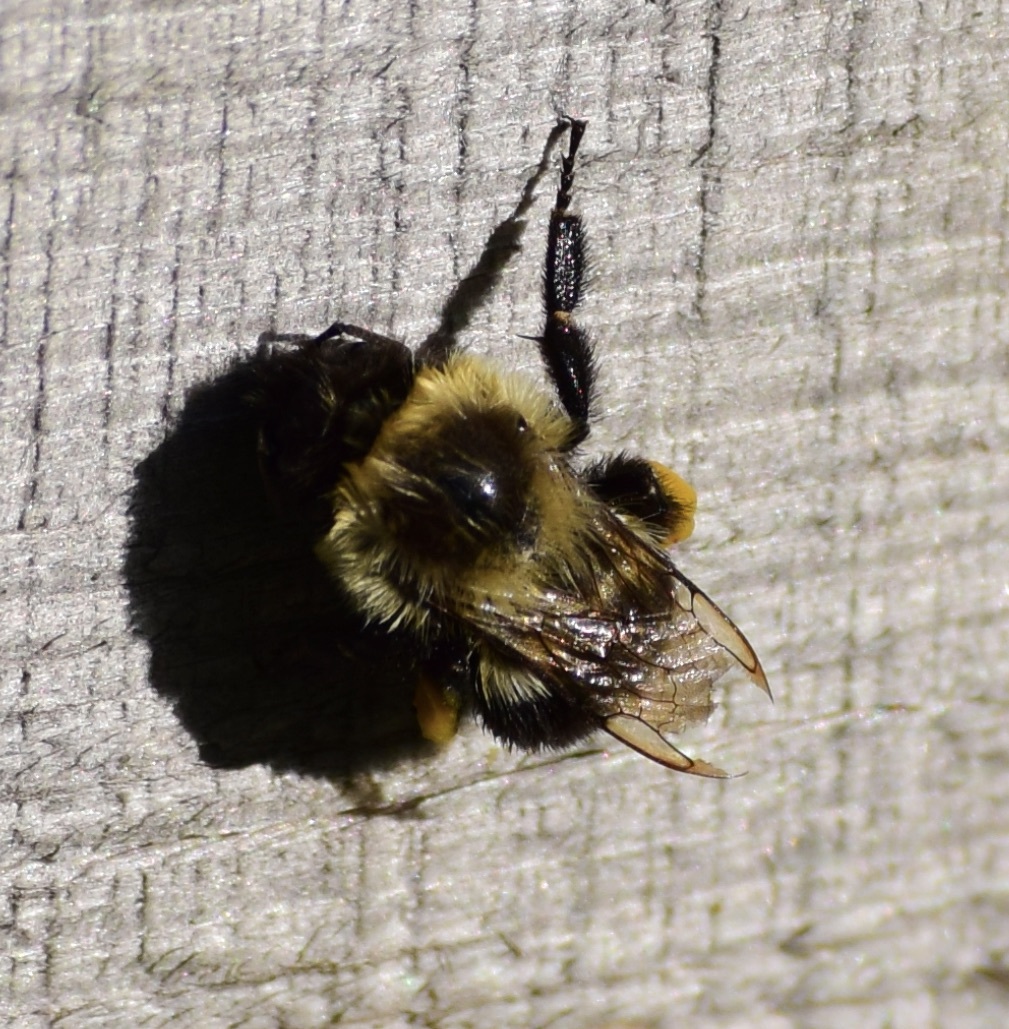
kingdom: Animalia
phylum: Arthropoda
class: Insecta
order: Hymenoptera
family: Apidae
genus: Bombus
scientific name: Bombus impatiens
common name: Common eastern bumble bee
